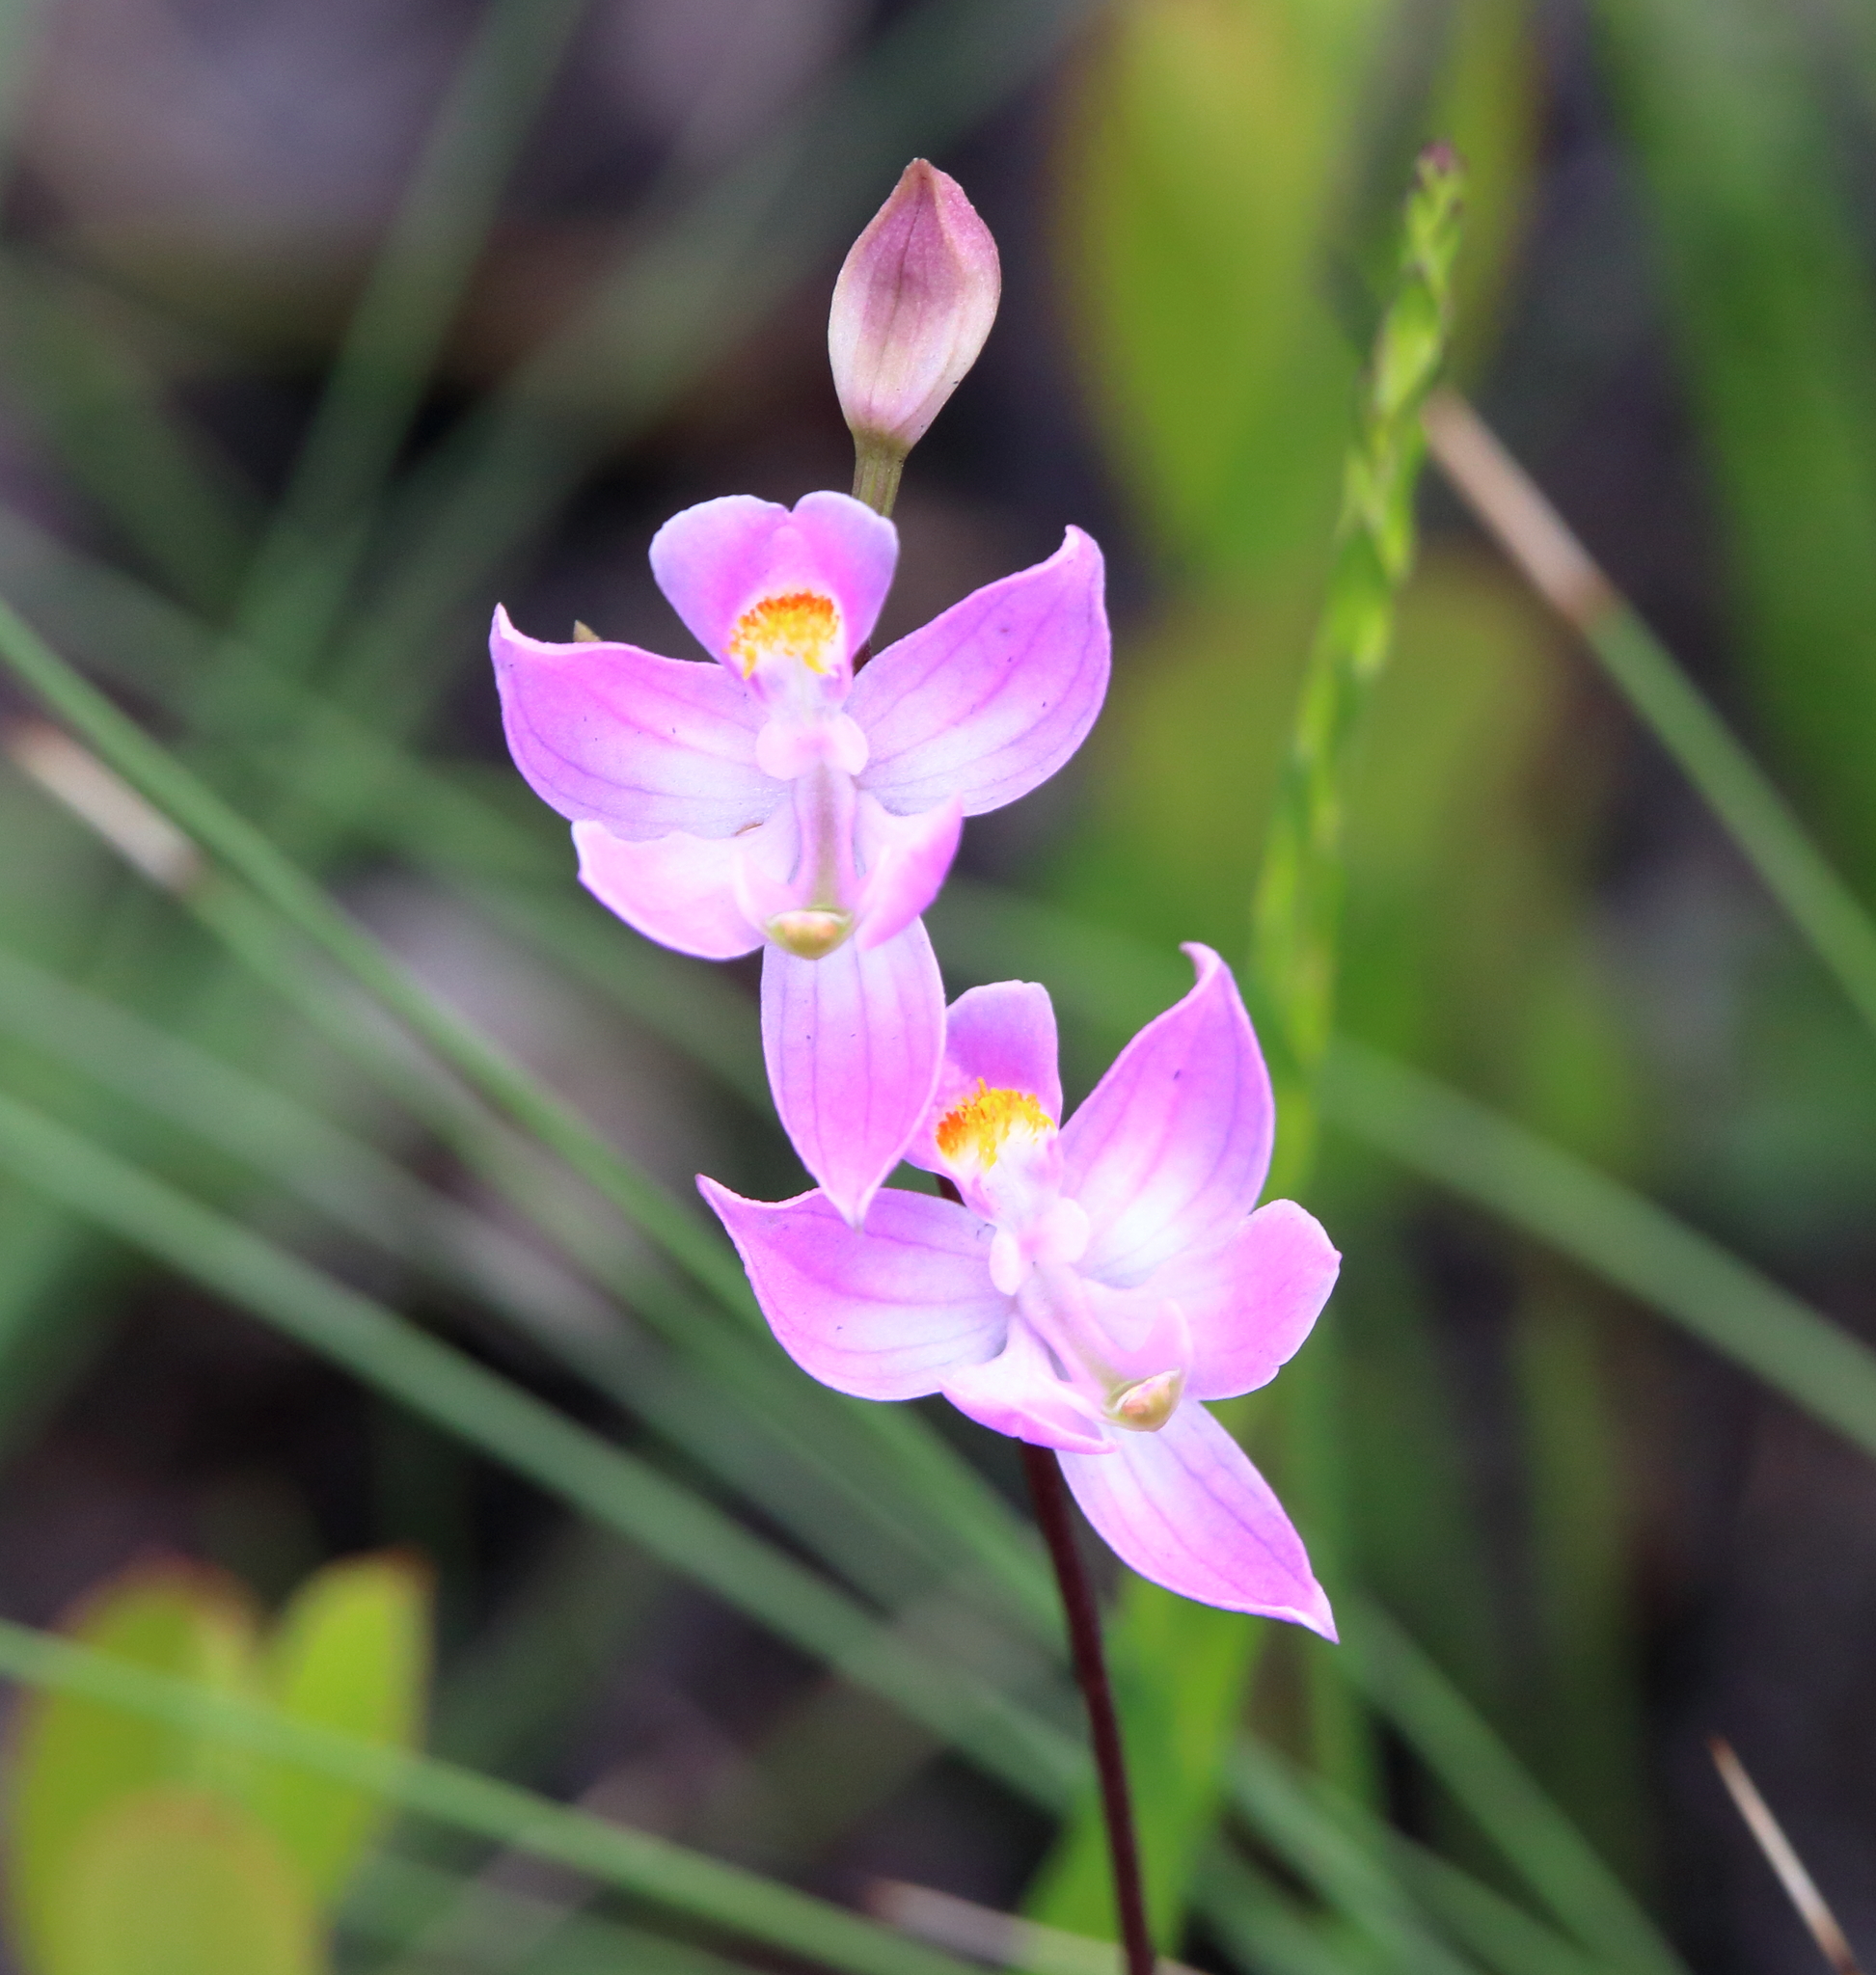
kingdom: Plantae
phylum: Tracheophyta
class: Liliopsida
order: Asparagales
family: Orchidaceae
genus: Calopogon
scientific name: Calopogon multiflorus
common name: Many-flowered grass-pink orchid
